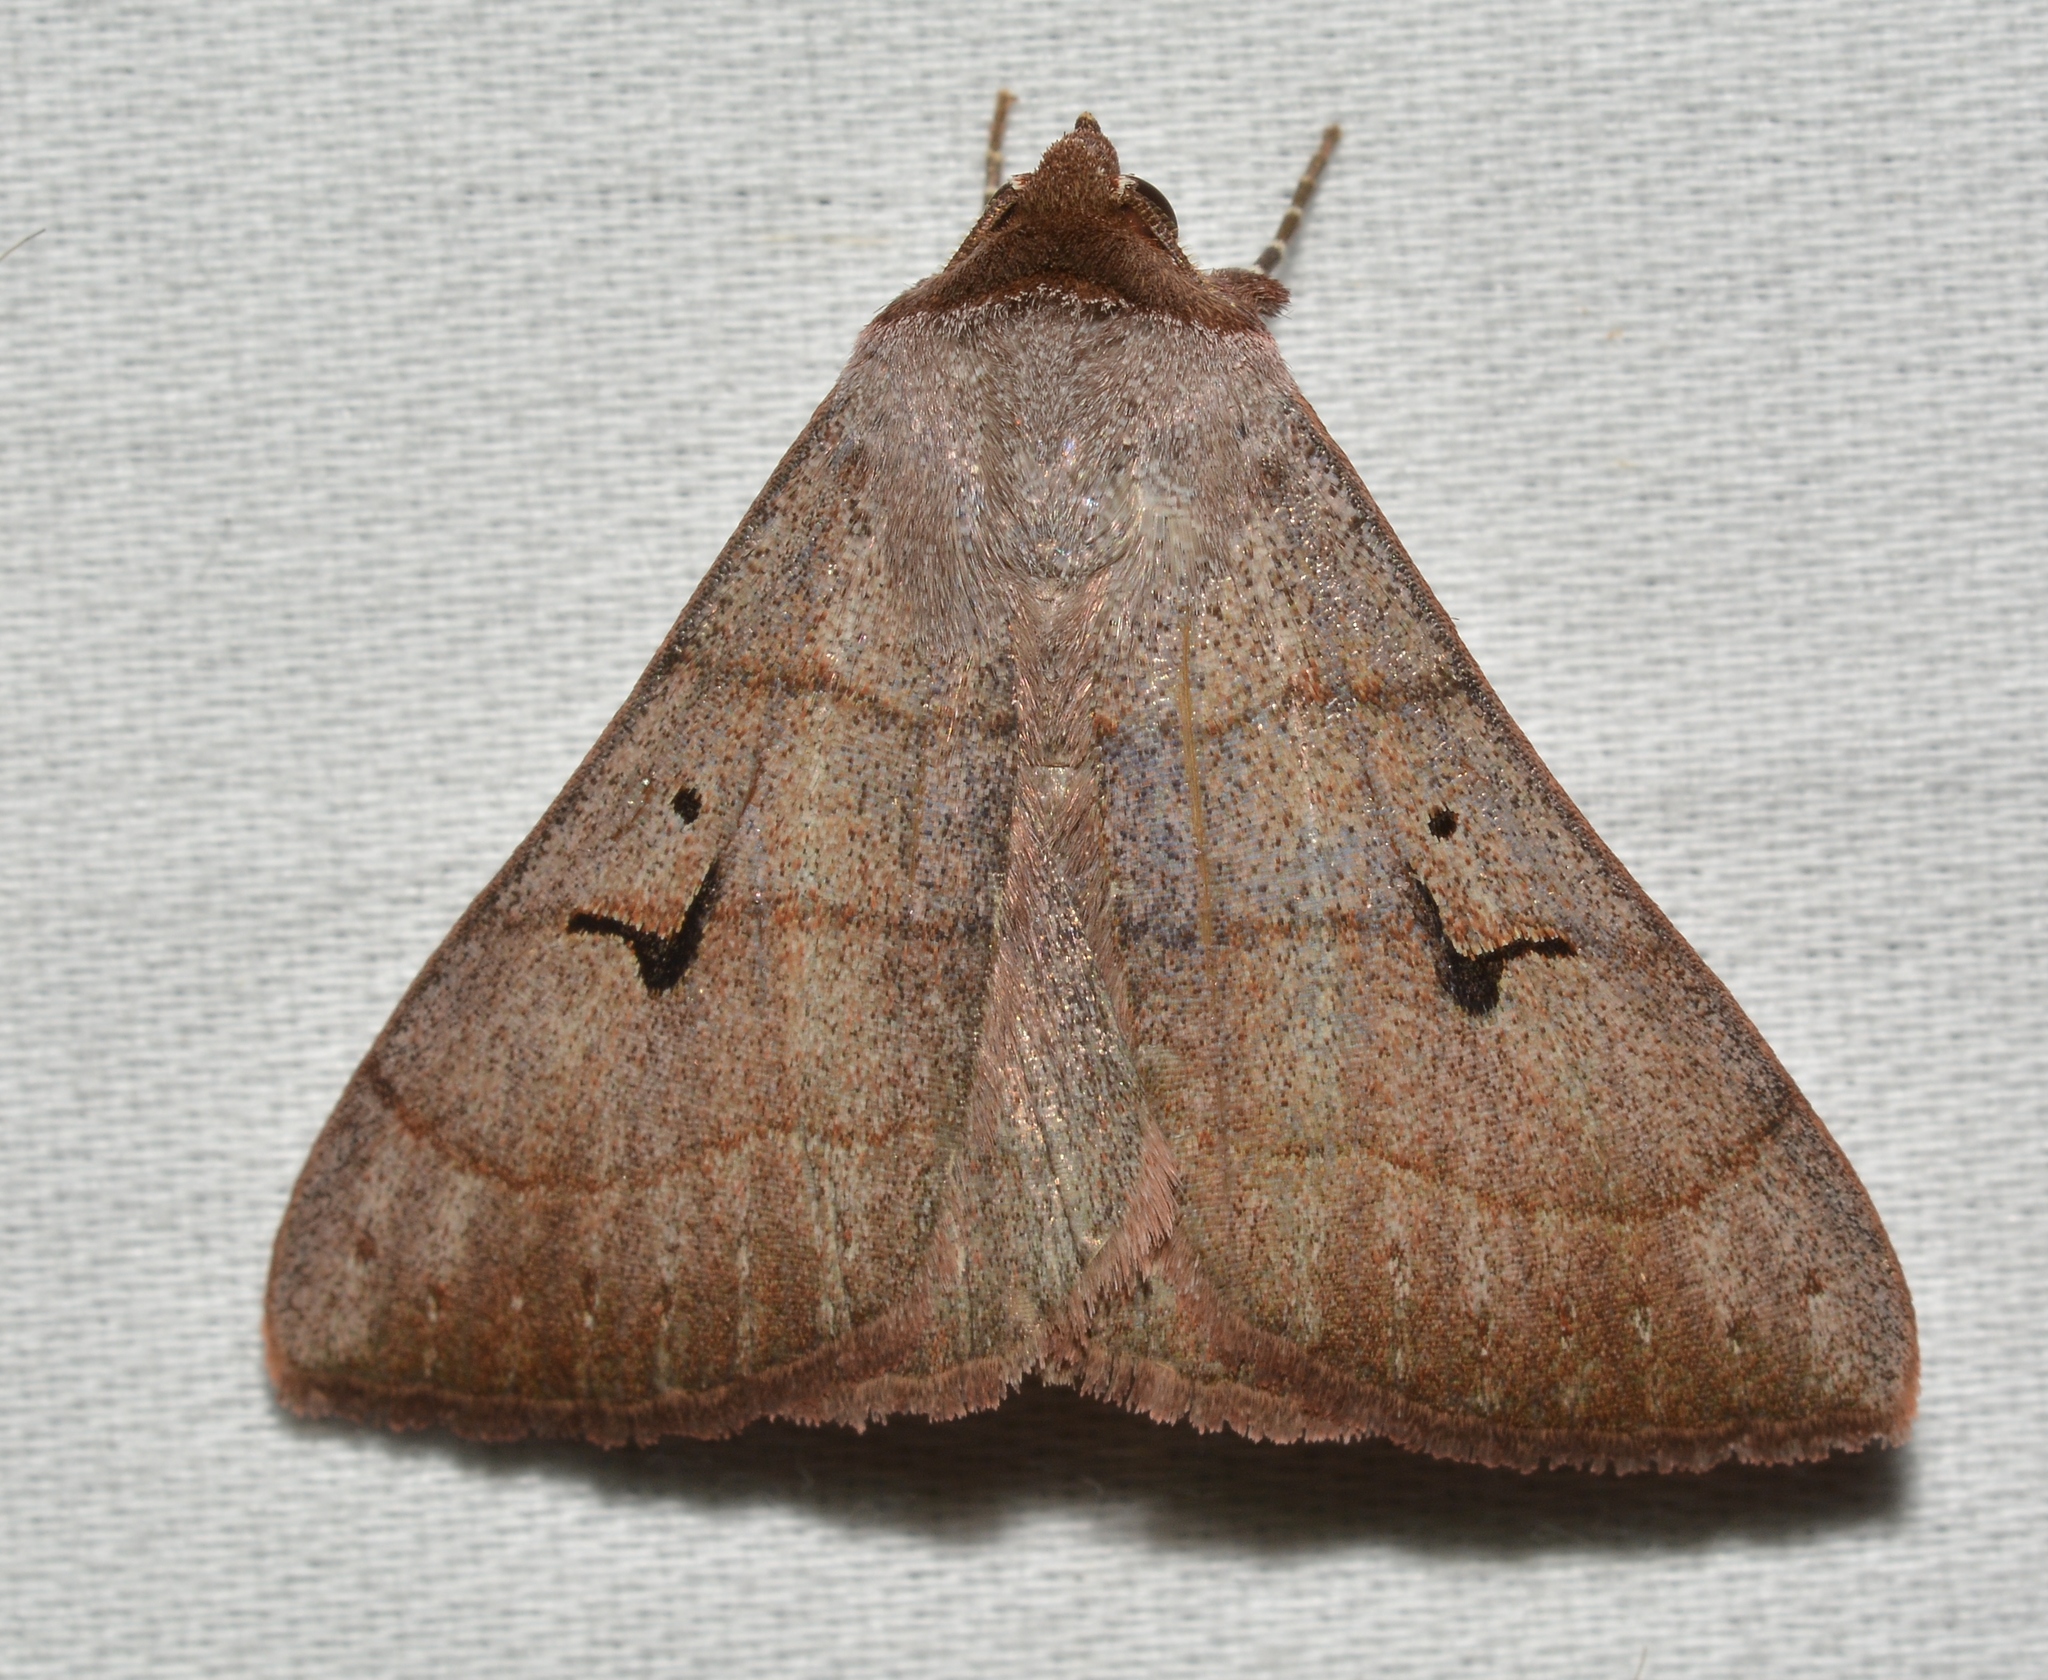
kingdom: Animalia
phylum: Arthropoda
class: Insecta
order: Lepidoptera
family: Erebidae
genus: Panopoda
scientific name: Panopoda carneicosta
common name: Brown panopoda moth
